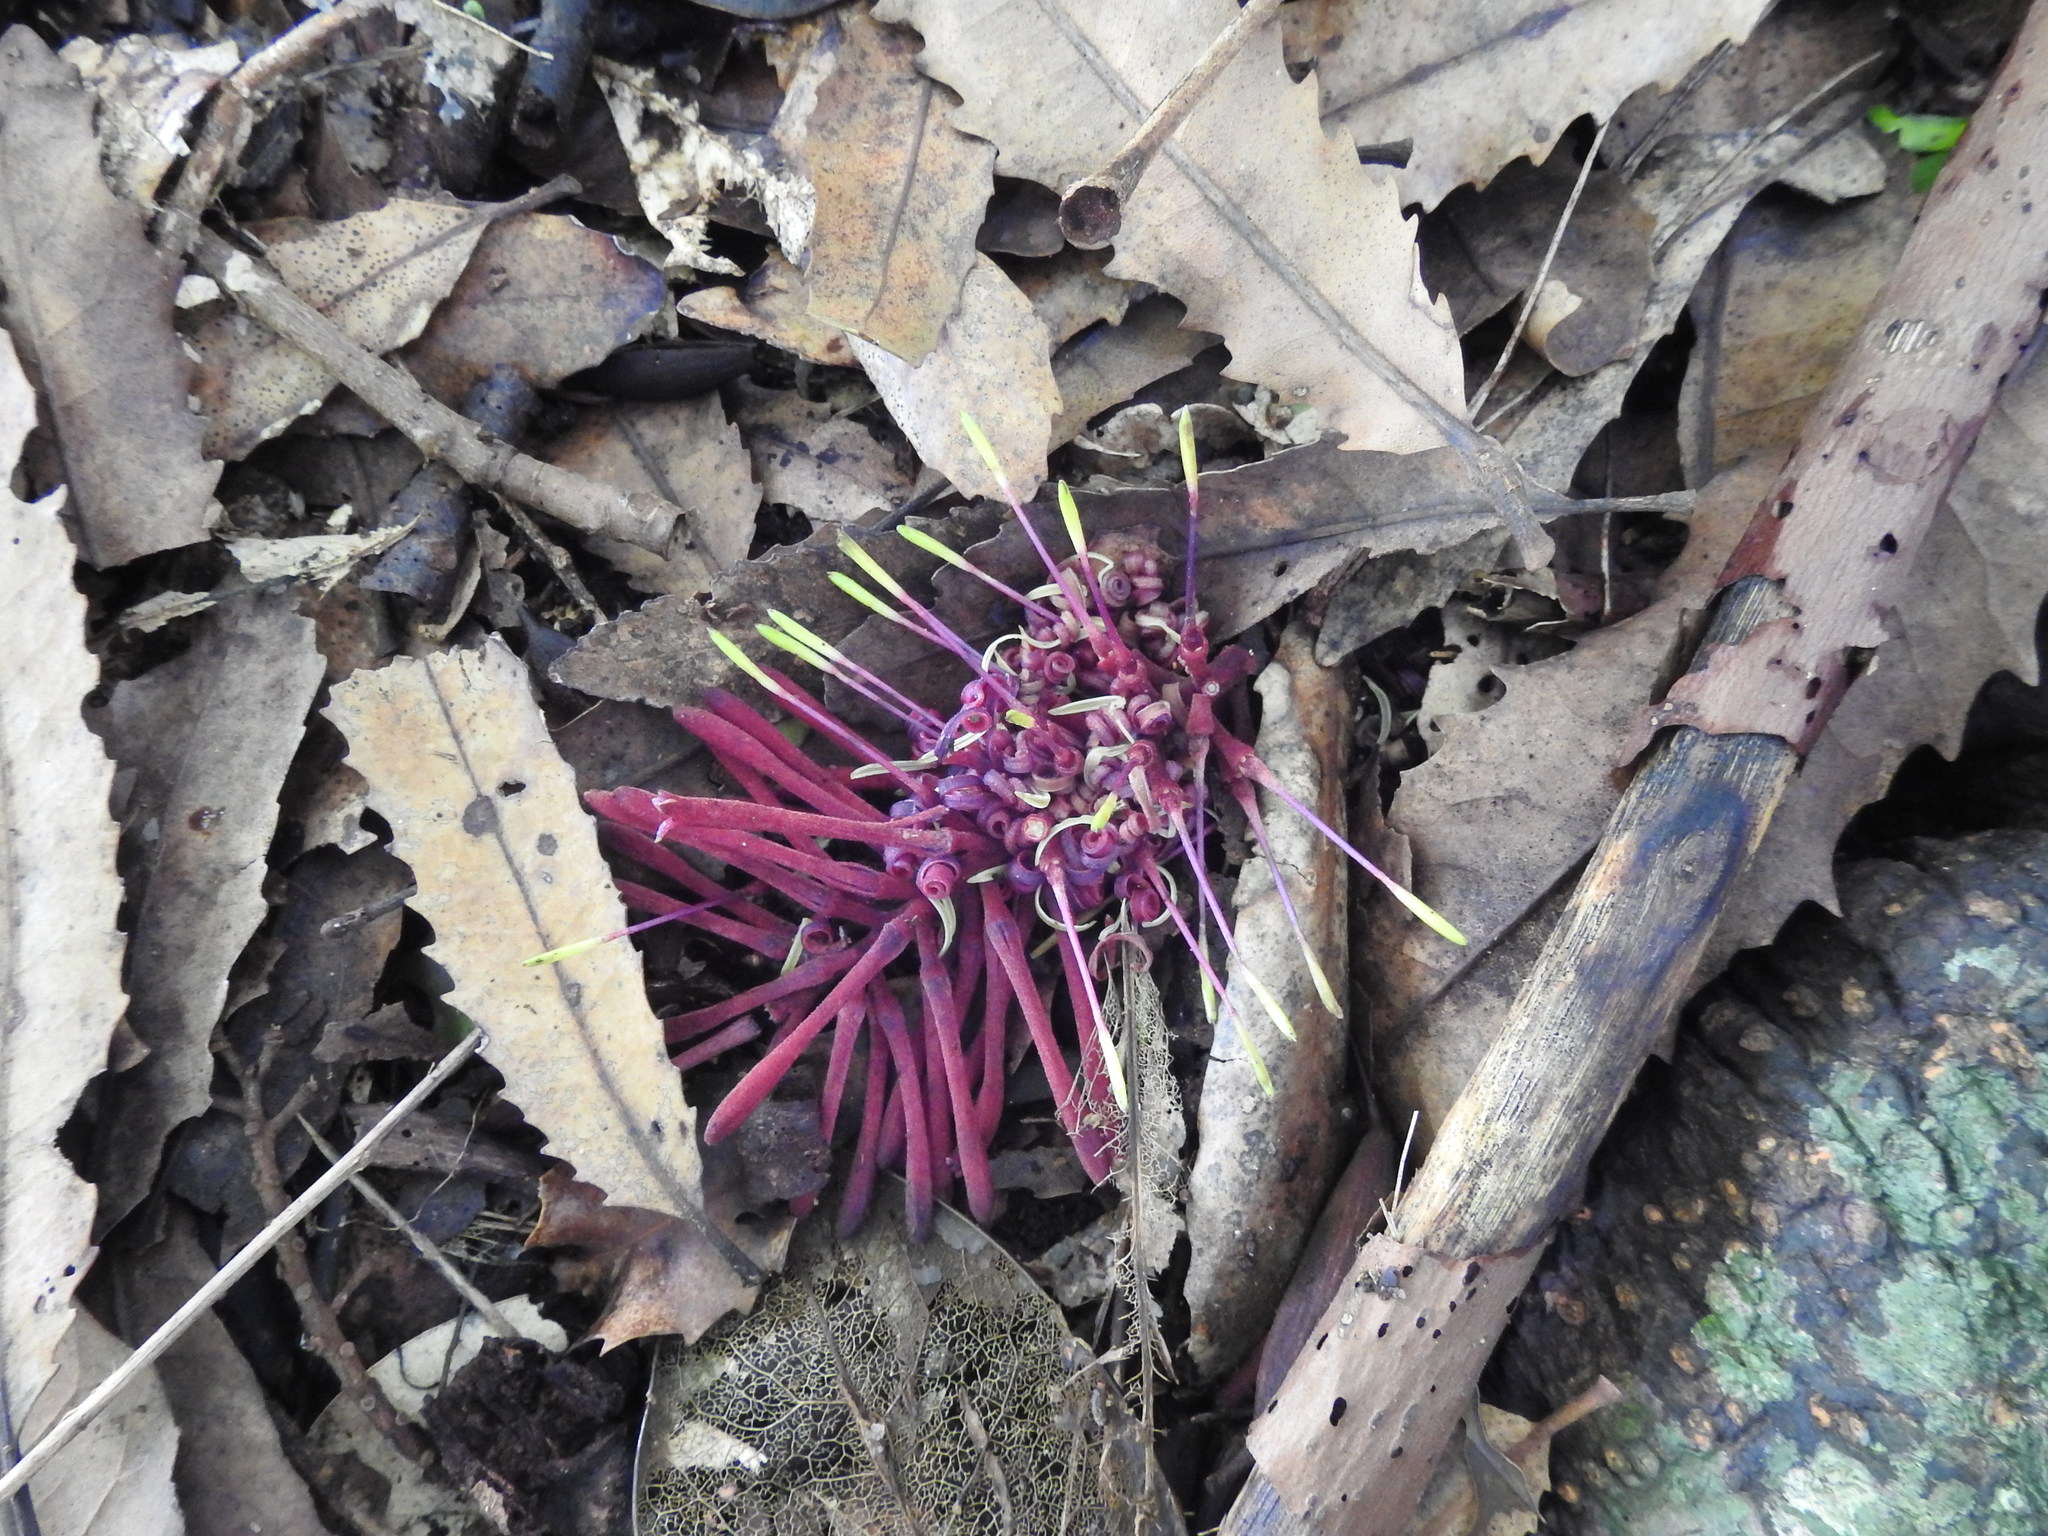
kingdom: Plantae
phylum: Tracheophyta
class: Magnoliopsida
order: Proteales
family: Proteaceae
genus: Knightia
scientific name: Knightia excelsa
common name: New zealand-honeysuckle
